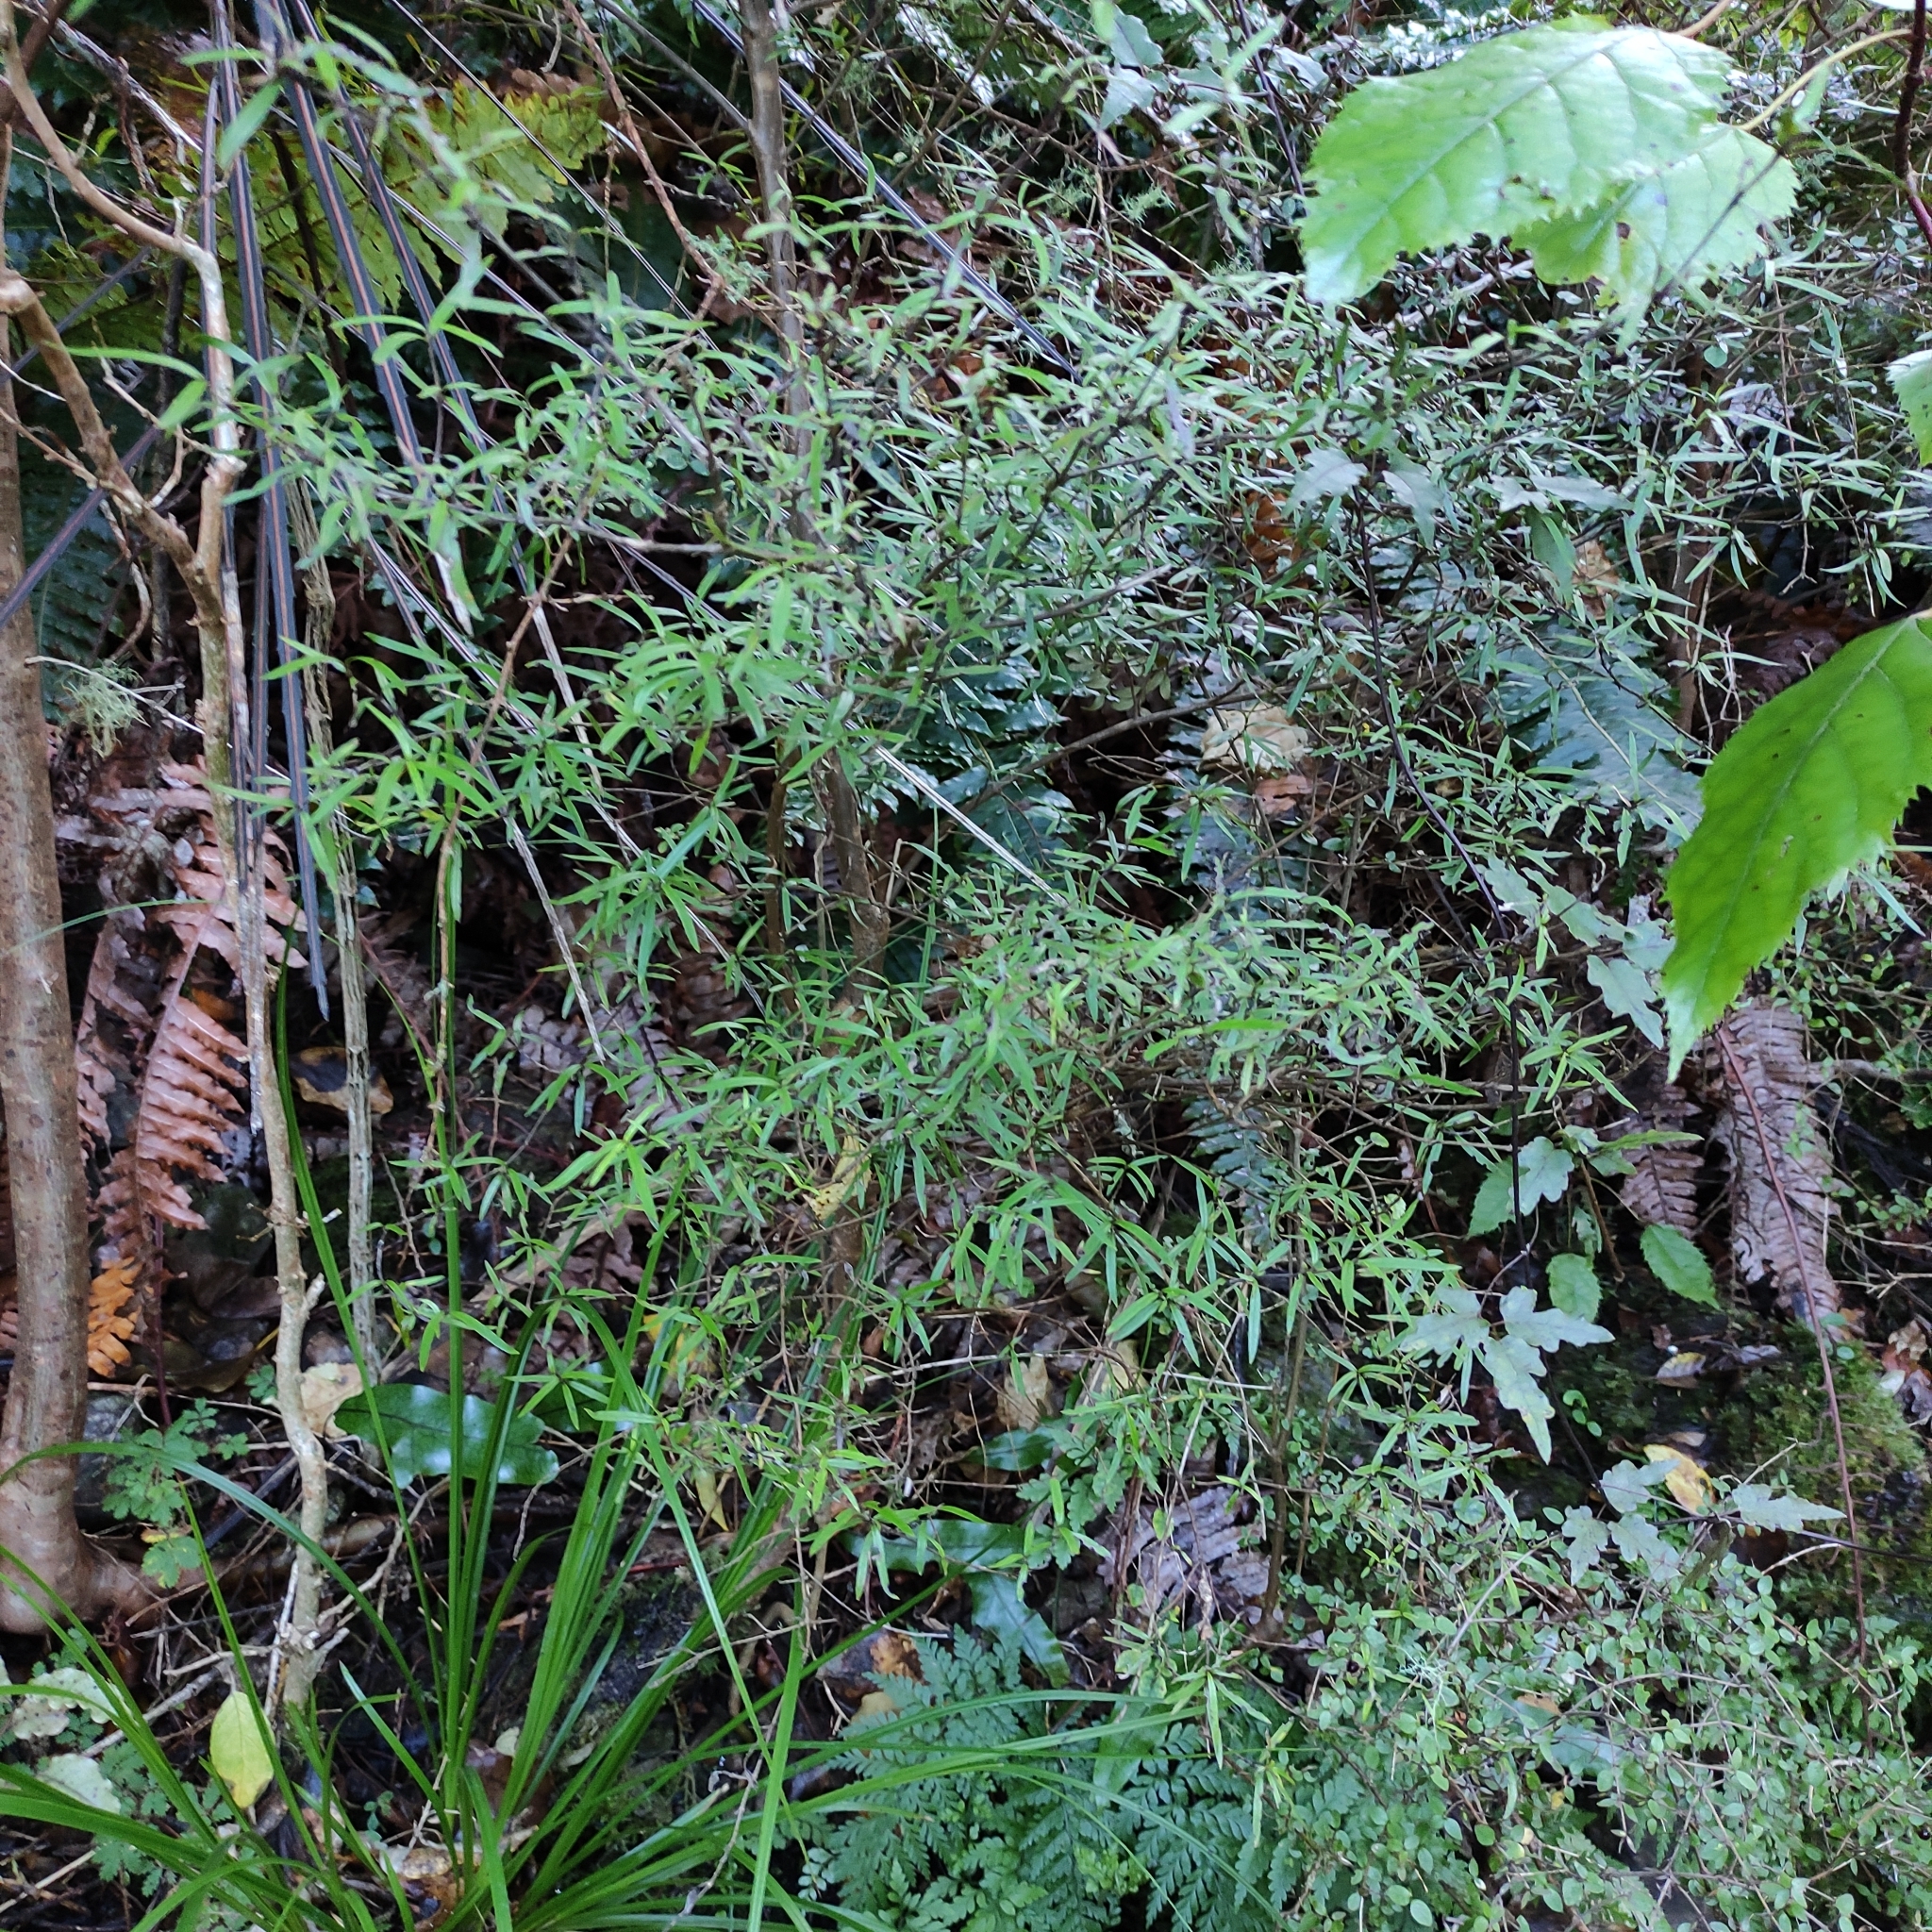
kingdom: Plantae
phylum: Tracheophyta
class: Magnoliopsida
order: Gentianales
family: Rubiaceae
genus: Coprosma
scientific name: Coprosma linariifolia
